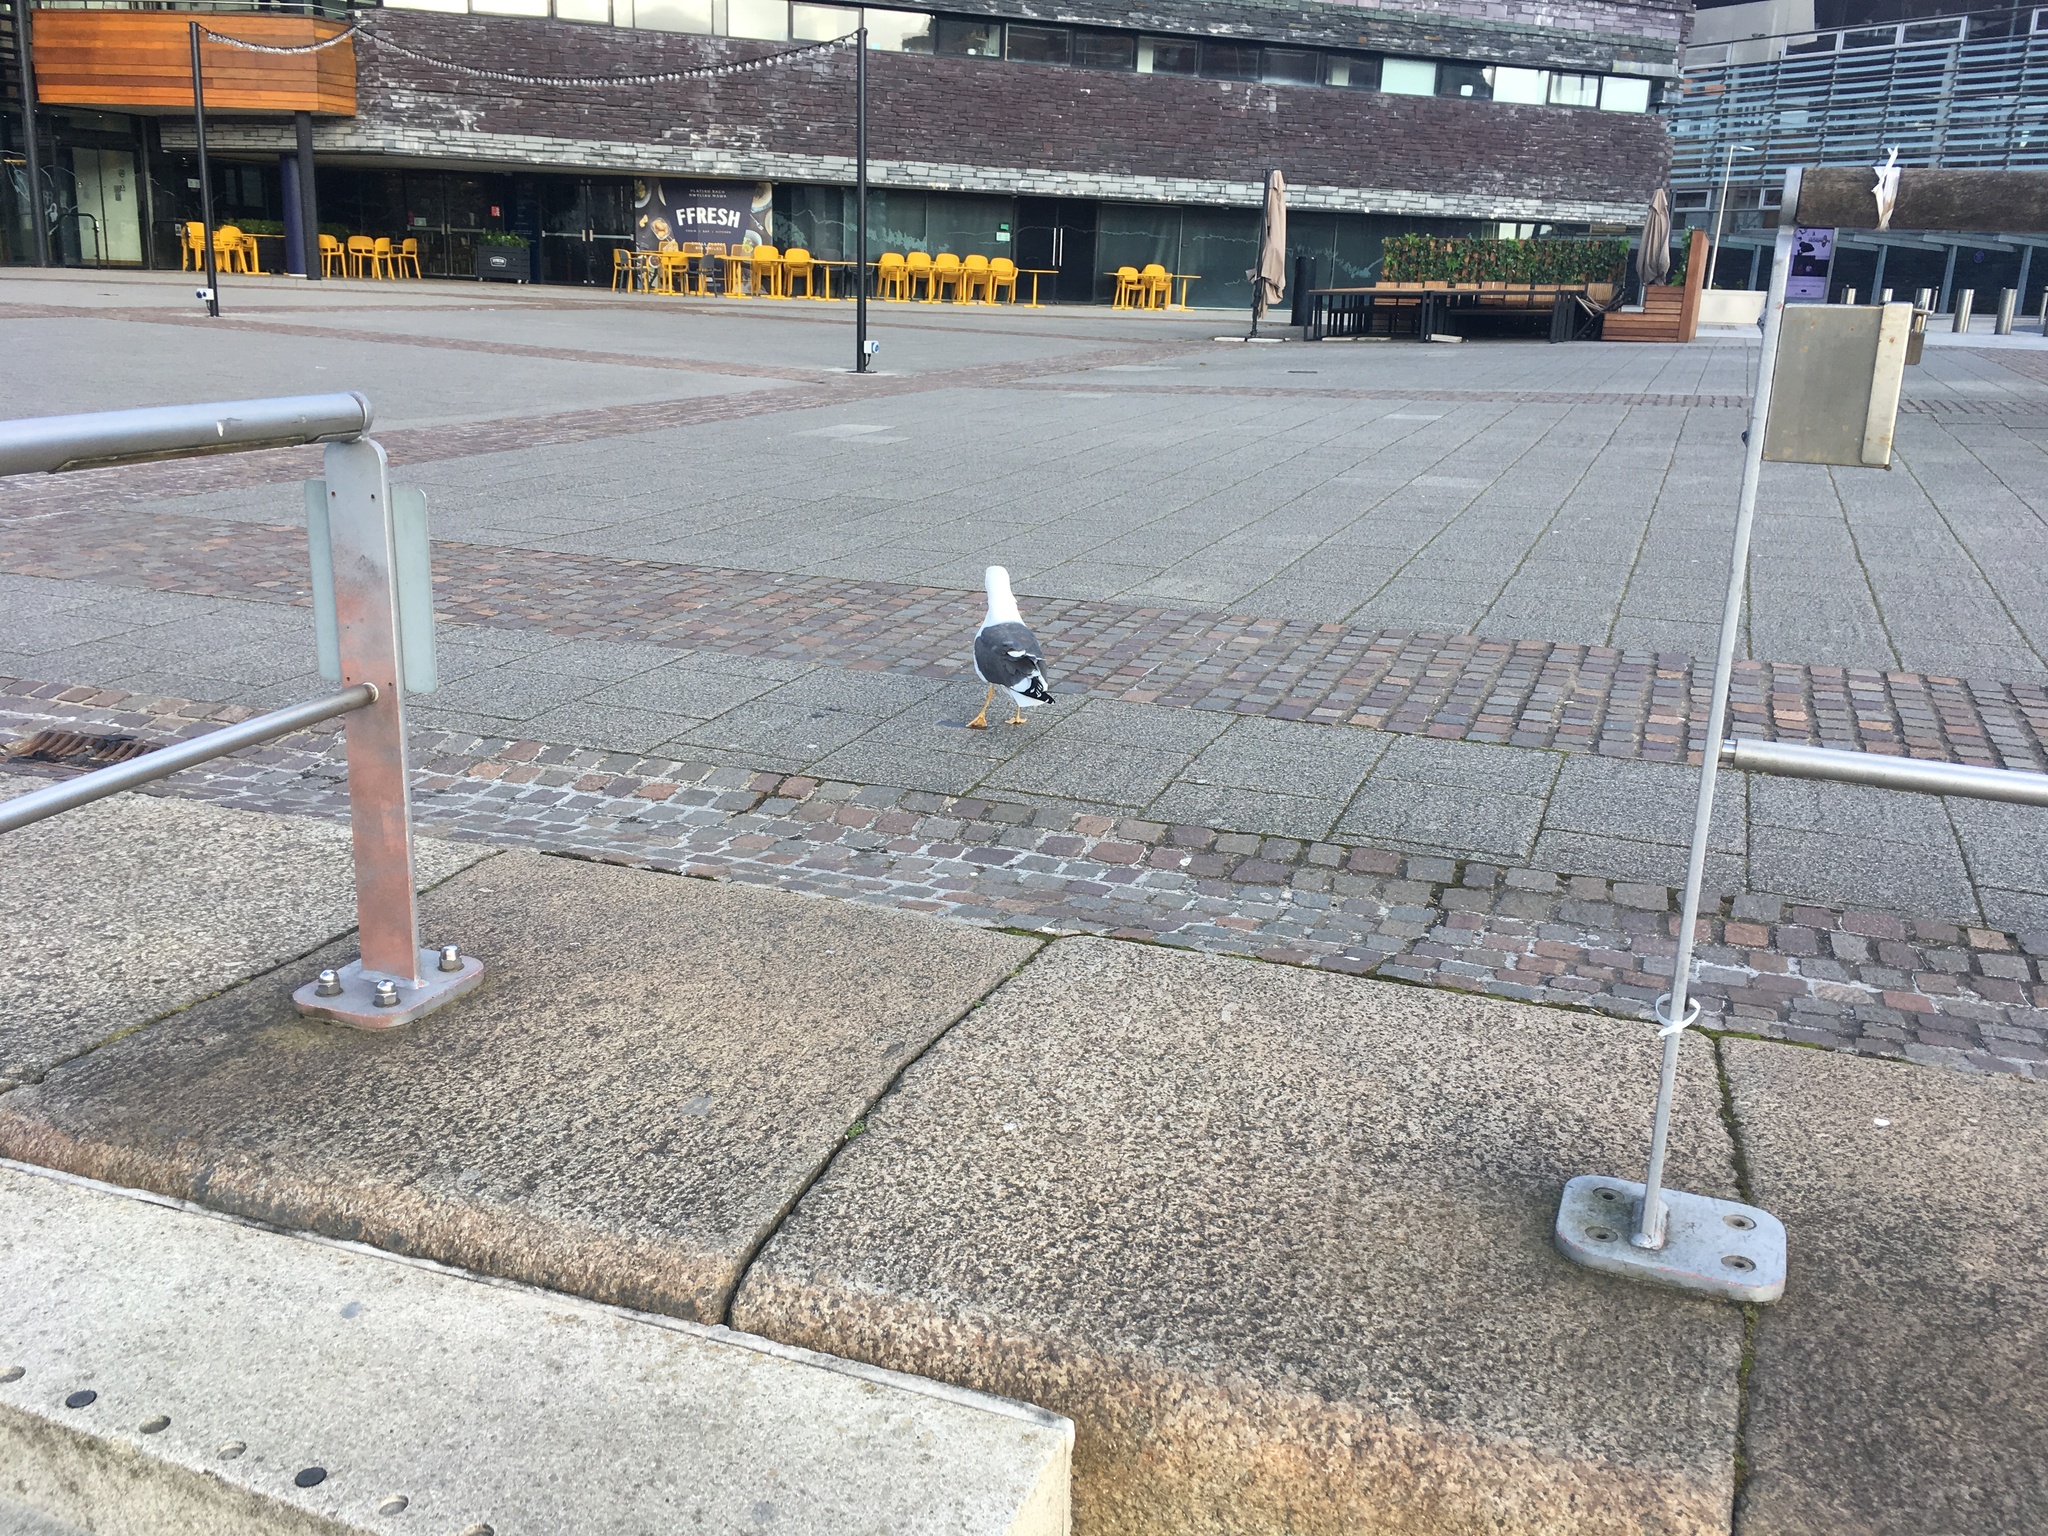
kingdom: Animalia
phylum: Chordata
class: Aves
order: Charadriiformes
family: Laridae
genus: Larus
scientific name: Larus fuscus
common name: Lesser black-backed gull
